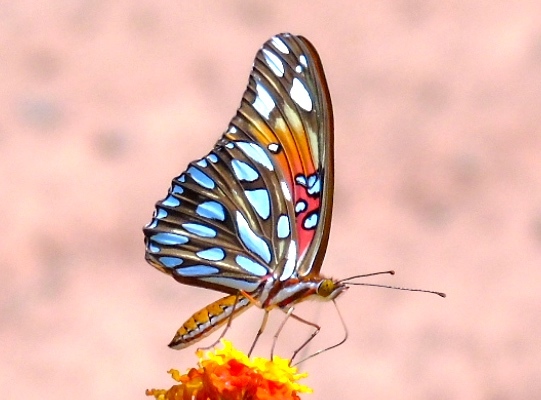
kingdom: Animalia
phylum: Arthropoda
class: Insecta
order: Lepidoptera
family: Nymphalidae
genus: Dione
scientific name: Dione vanillae
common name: Gulf fritillary
